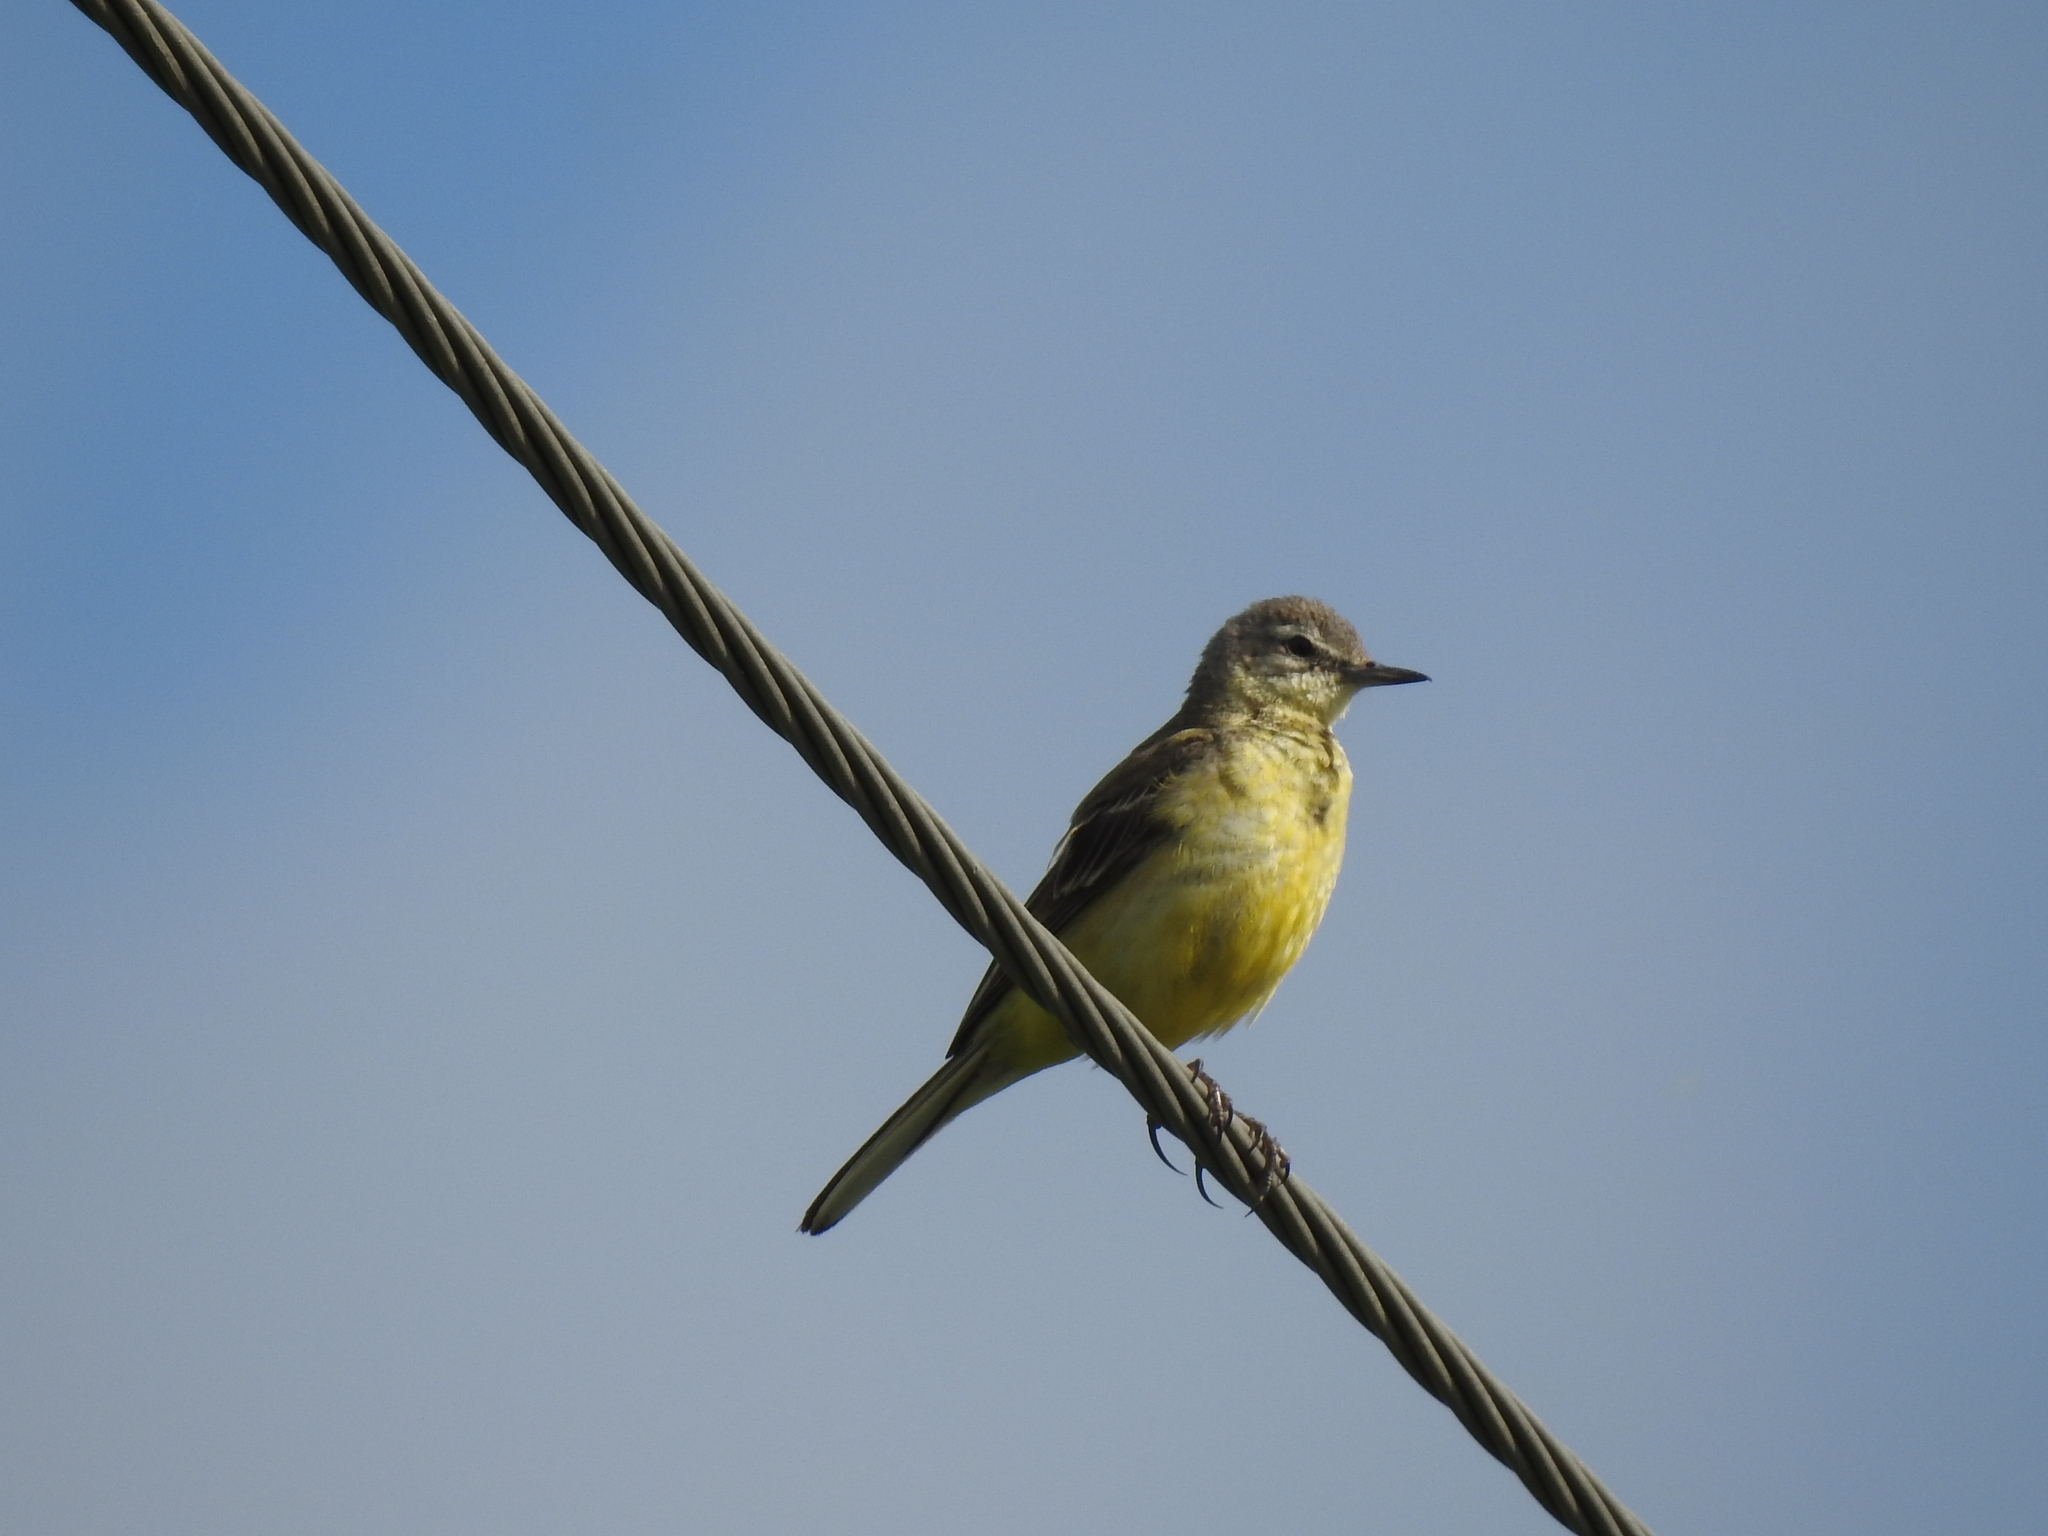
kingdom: Animalia
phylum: Chordata
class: Aves
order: Passeriformes
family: Motacillidae
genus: Motacilla
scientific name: Motacilla flava
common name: Western yellow wagtail
